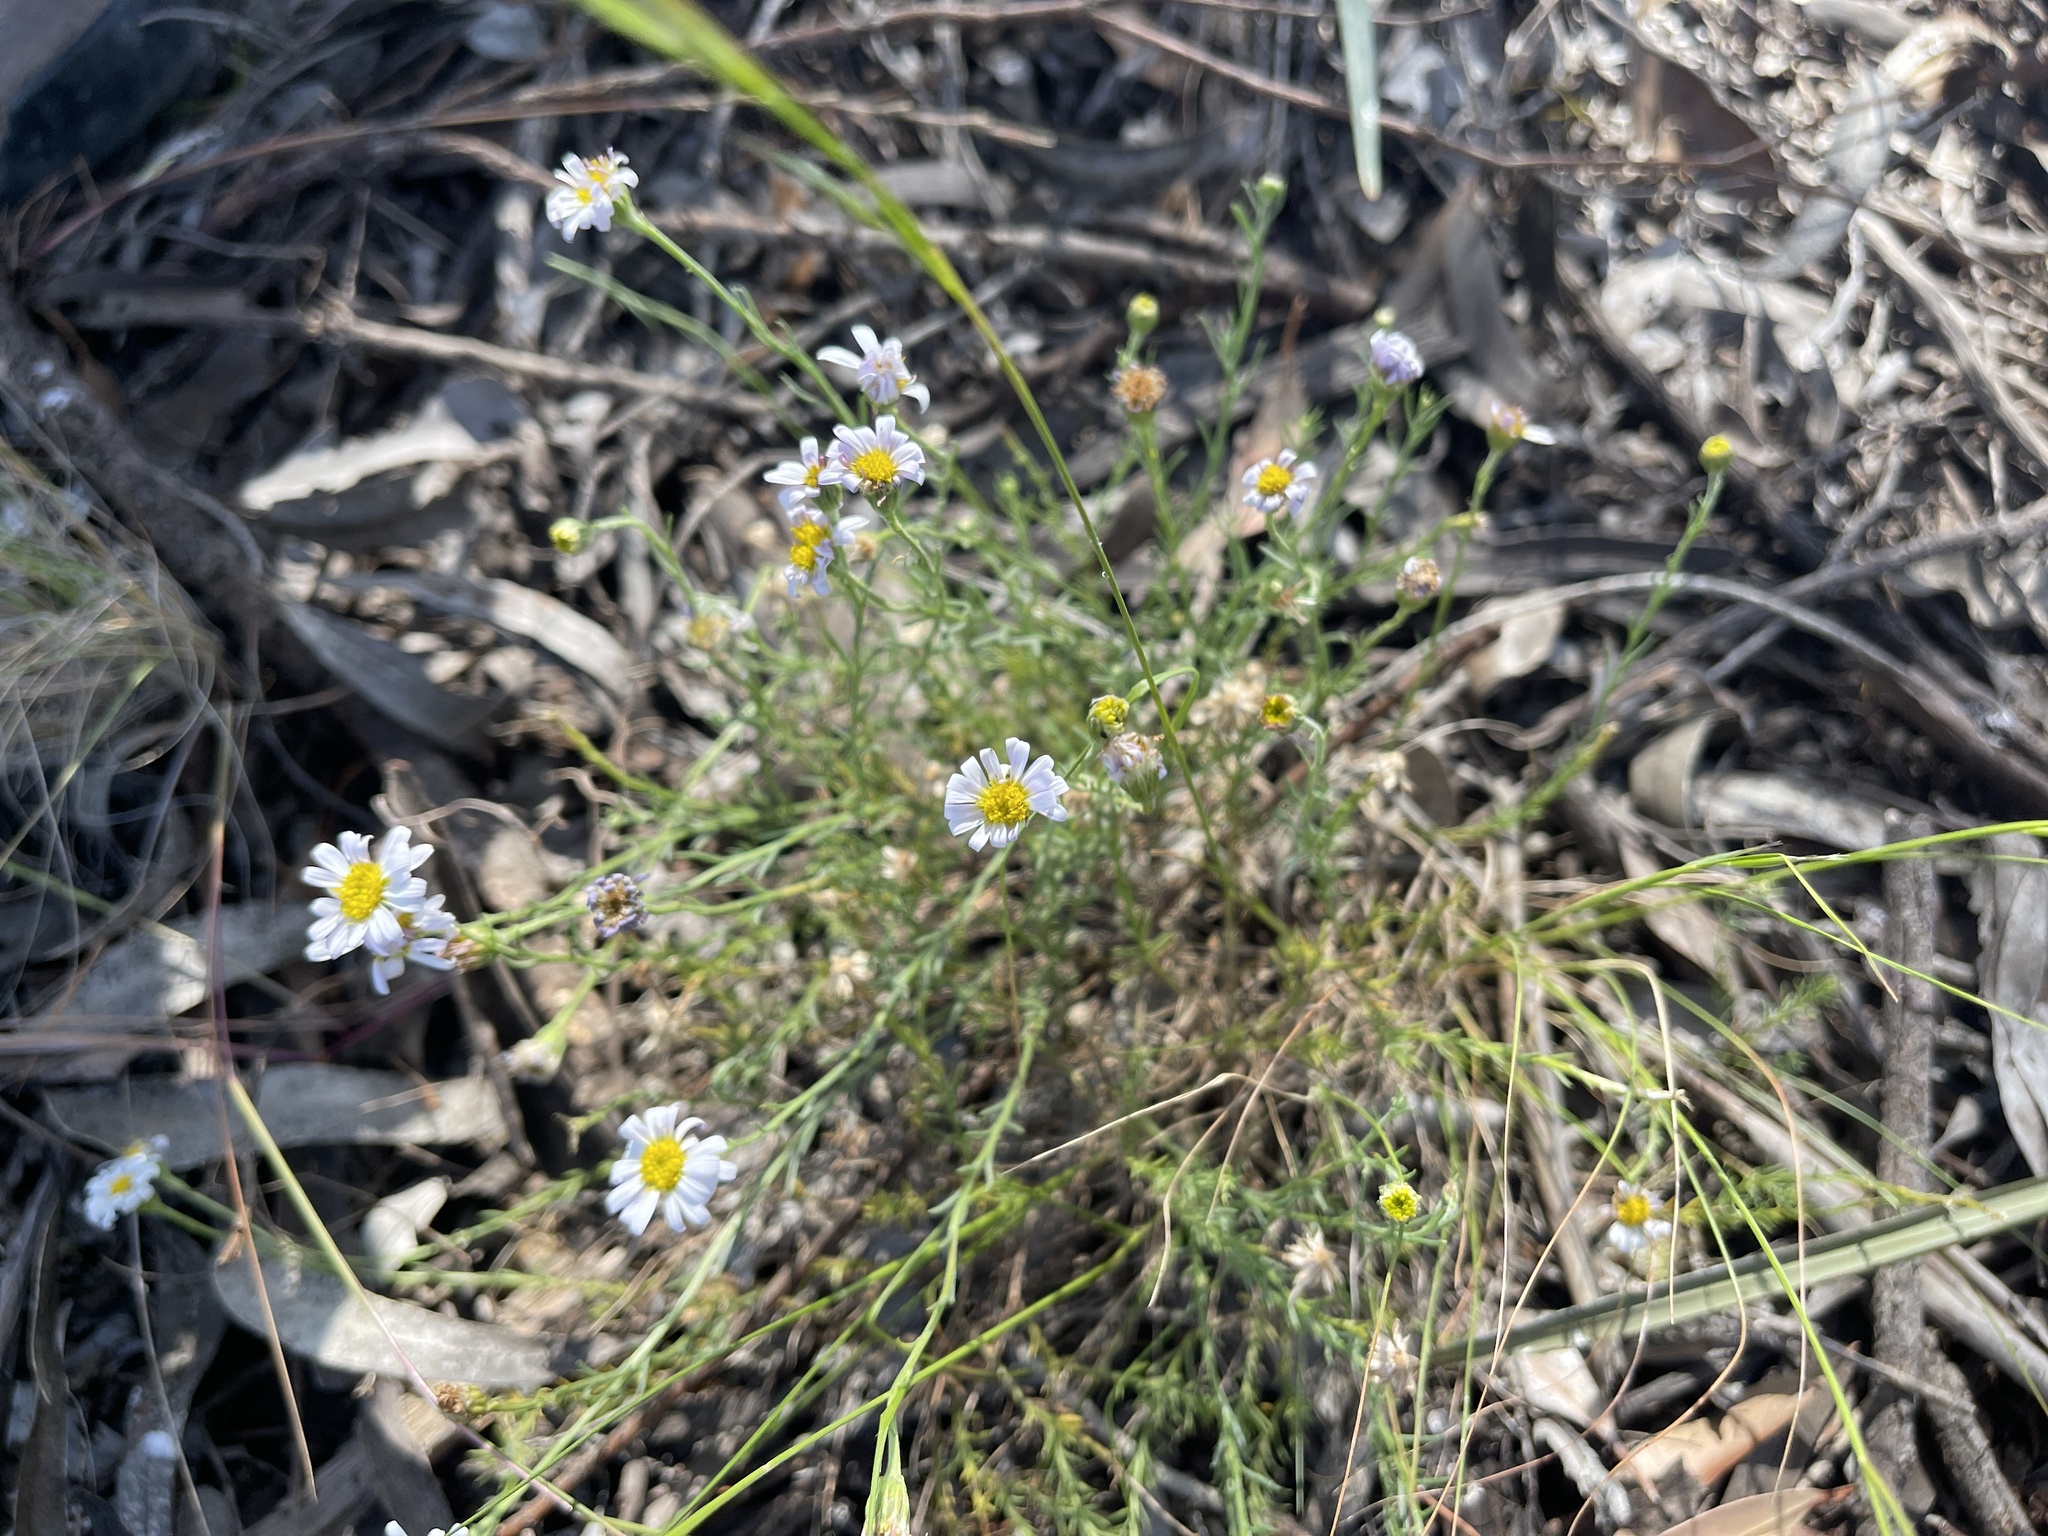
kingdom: Plantae
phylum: Tracheophyta
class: Magnoliopsida
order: Asterales
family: Asteraceae
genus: Minuria
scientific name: Minuria leptophylla
